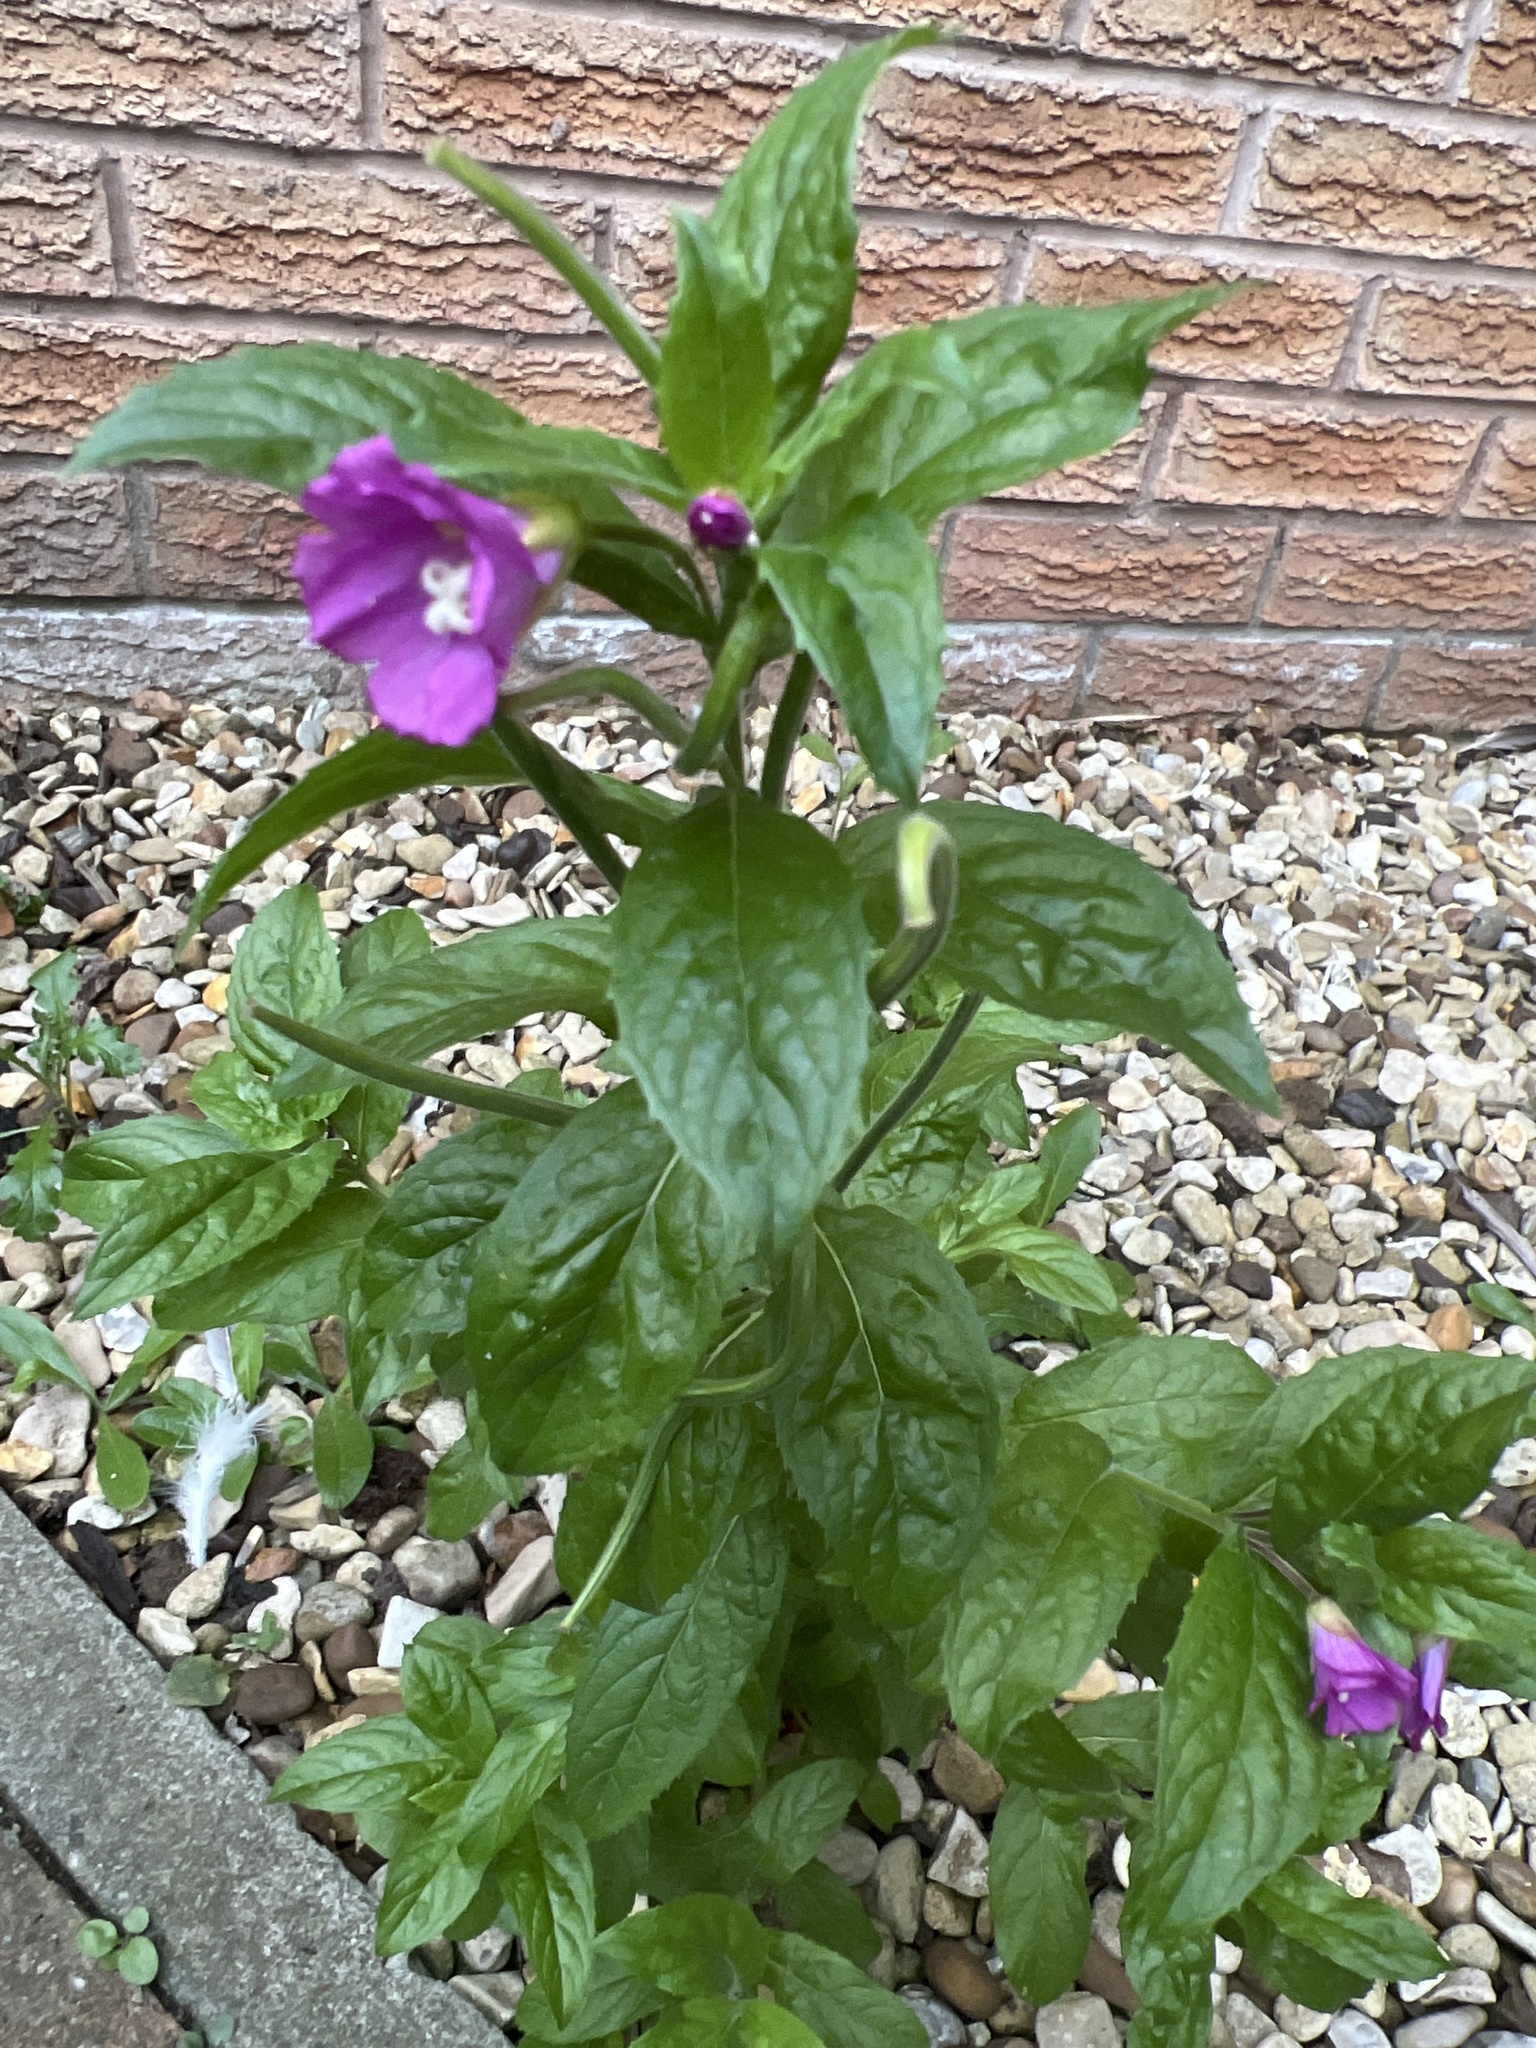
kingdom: Plantae
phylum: Tracheophyta
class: Magnoliopsida
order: Myrtales
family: Onagraceae
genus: Epilobium
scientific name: Epilobium hirsutum
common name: Great willowherb
